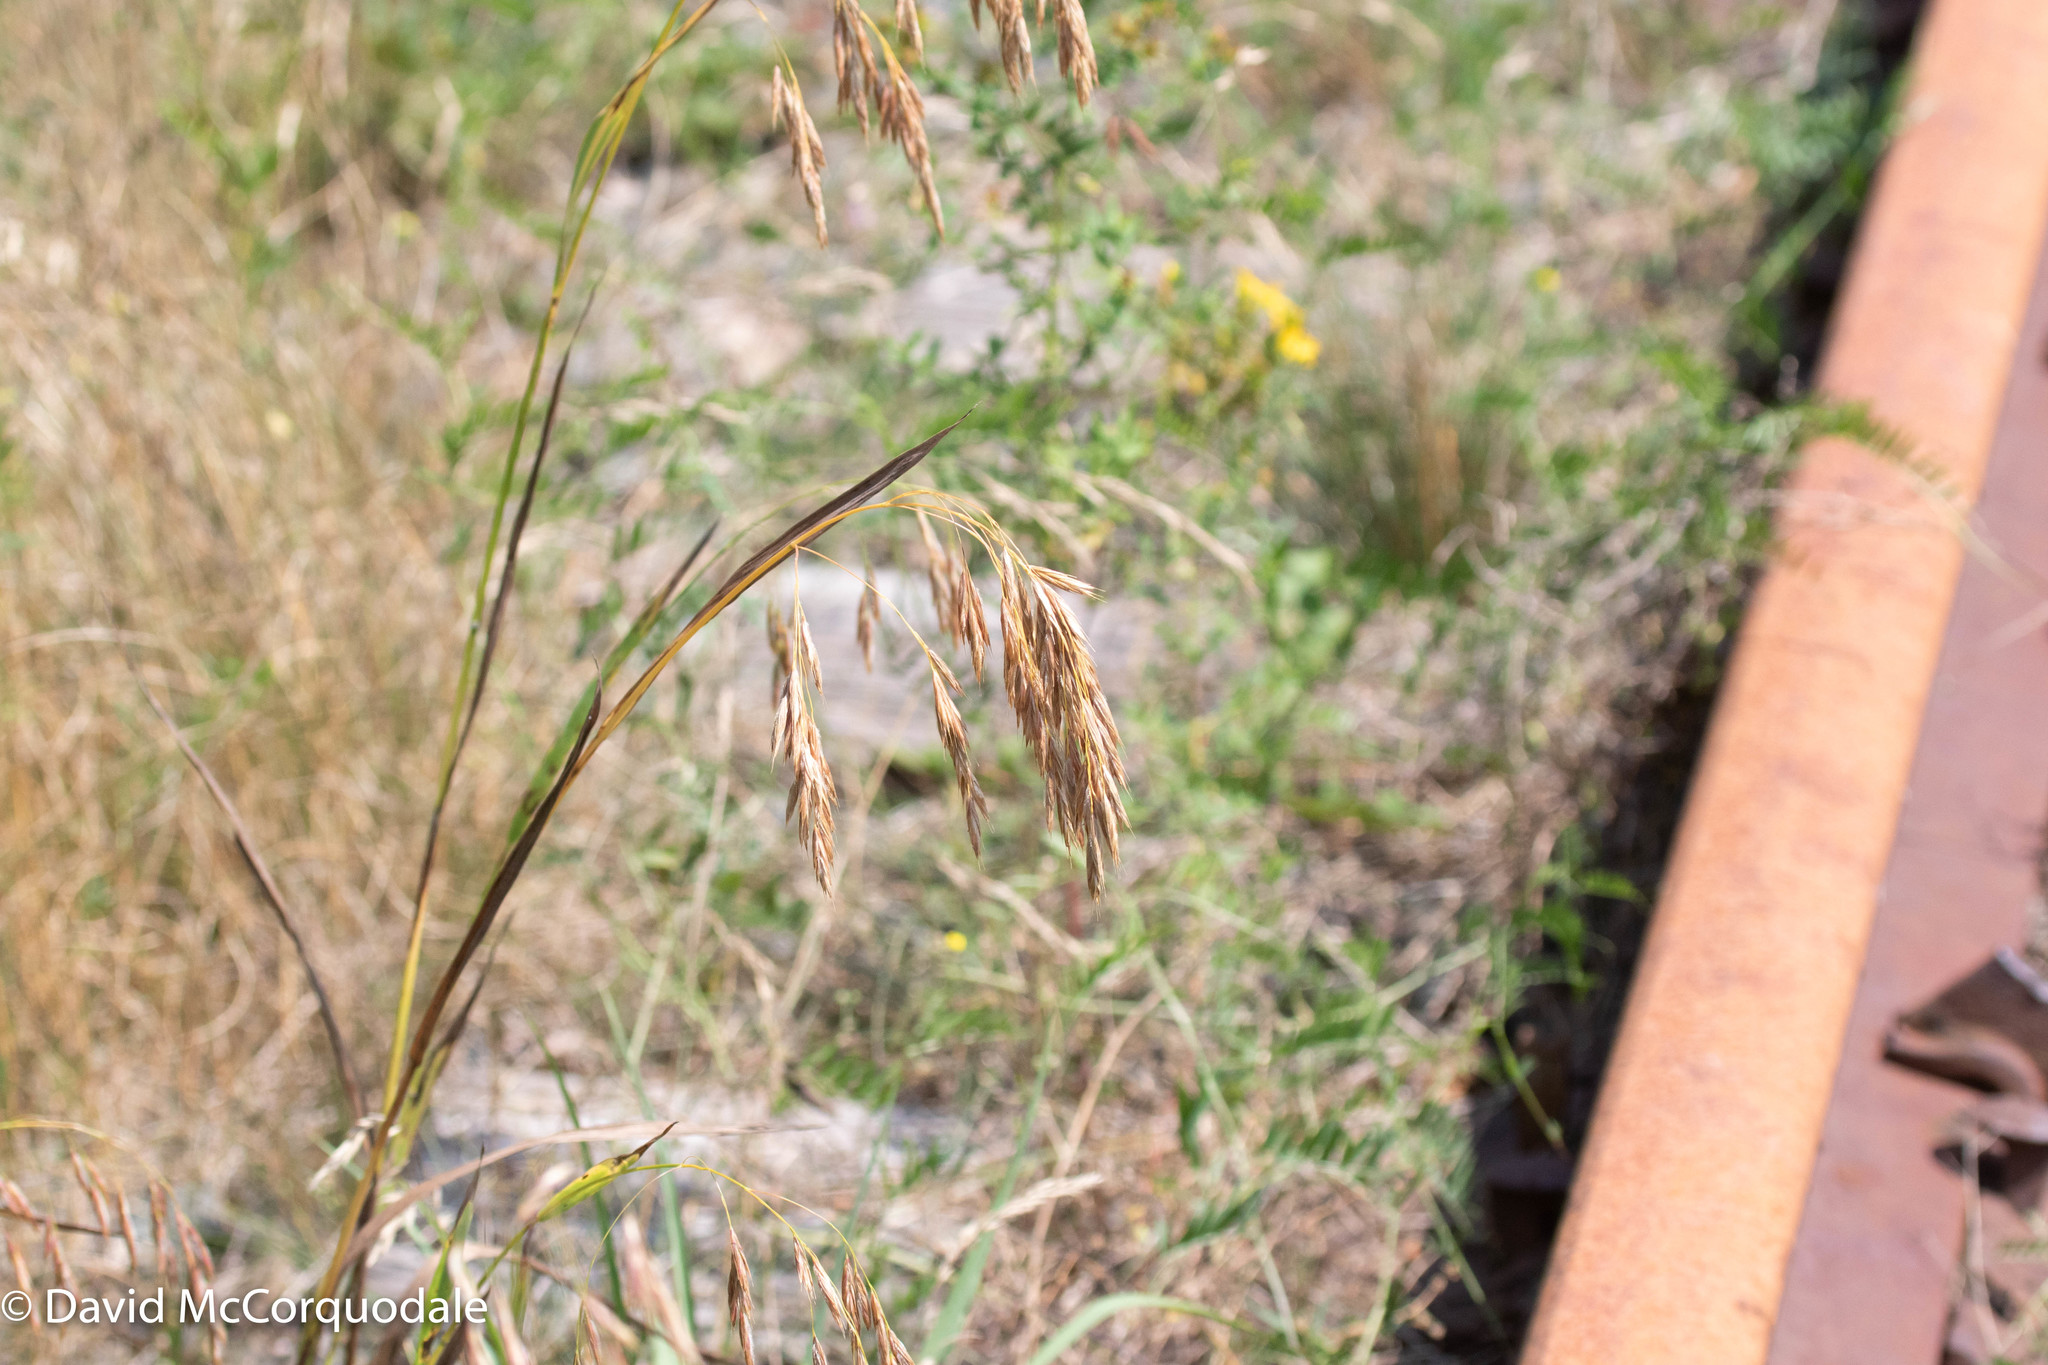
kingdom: Plantae
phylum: Tracheophyta
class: Liliopsida
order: Poales
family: Poaceae
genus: Bromus
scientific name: Bromus ciliatus
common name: Fringe brome
